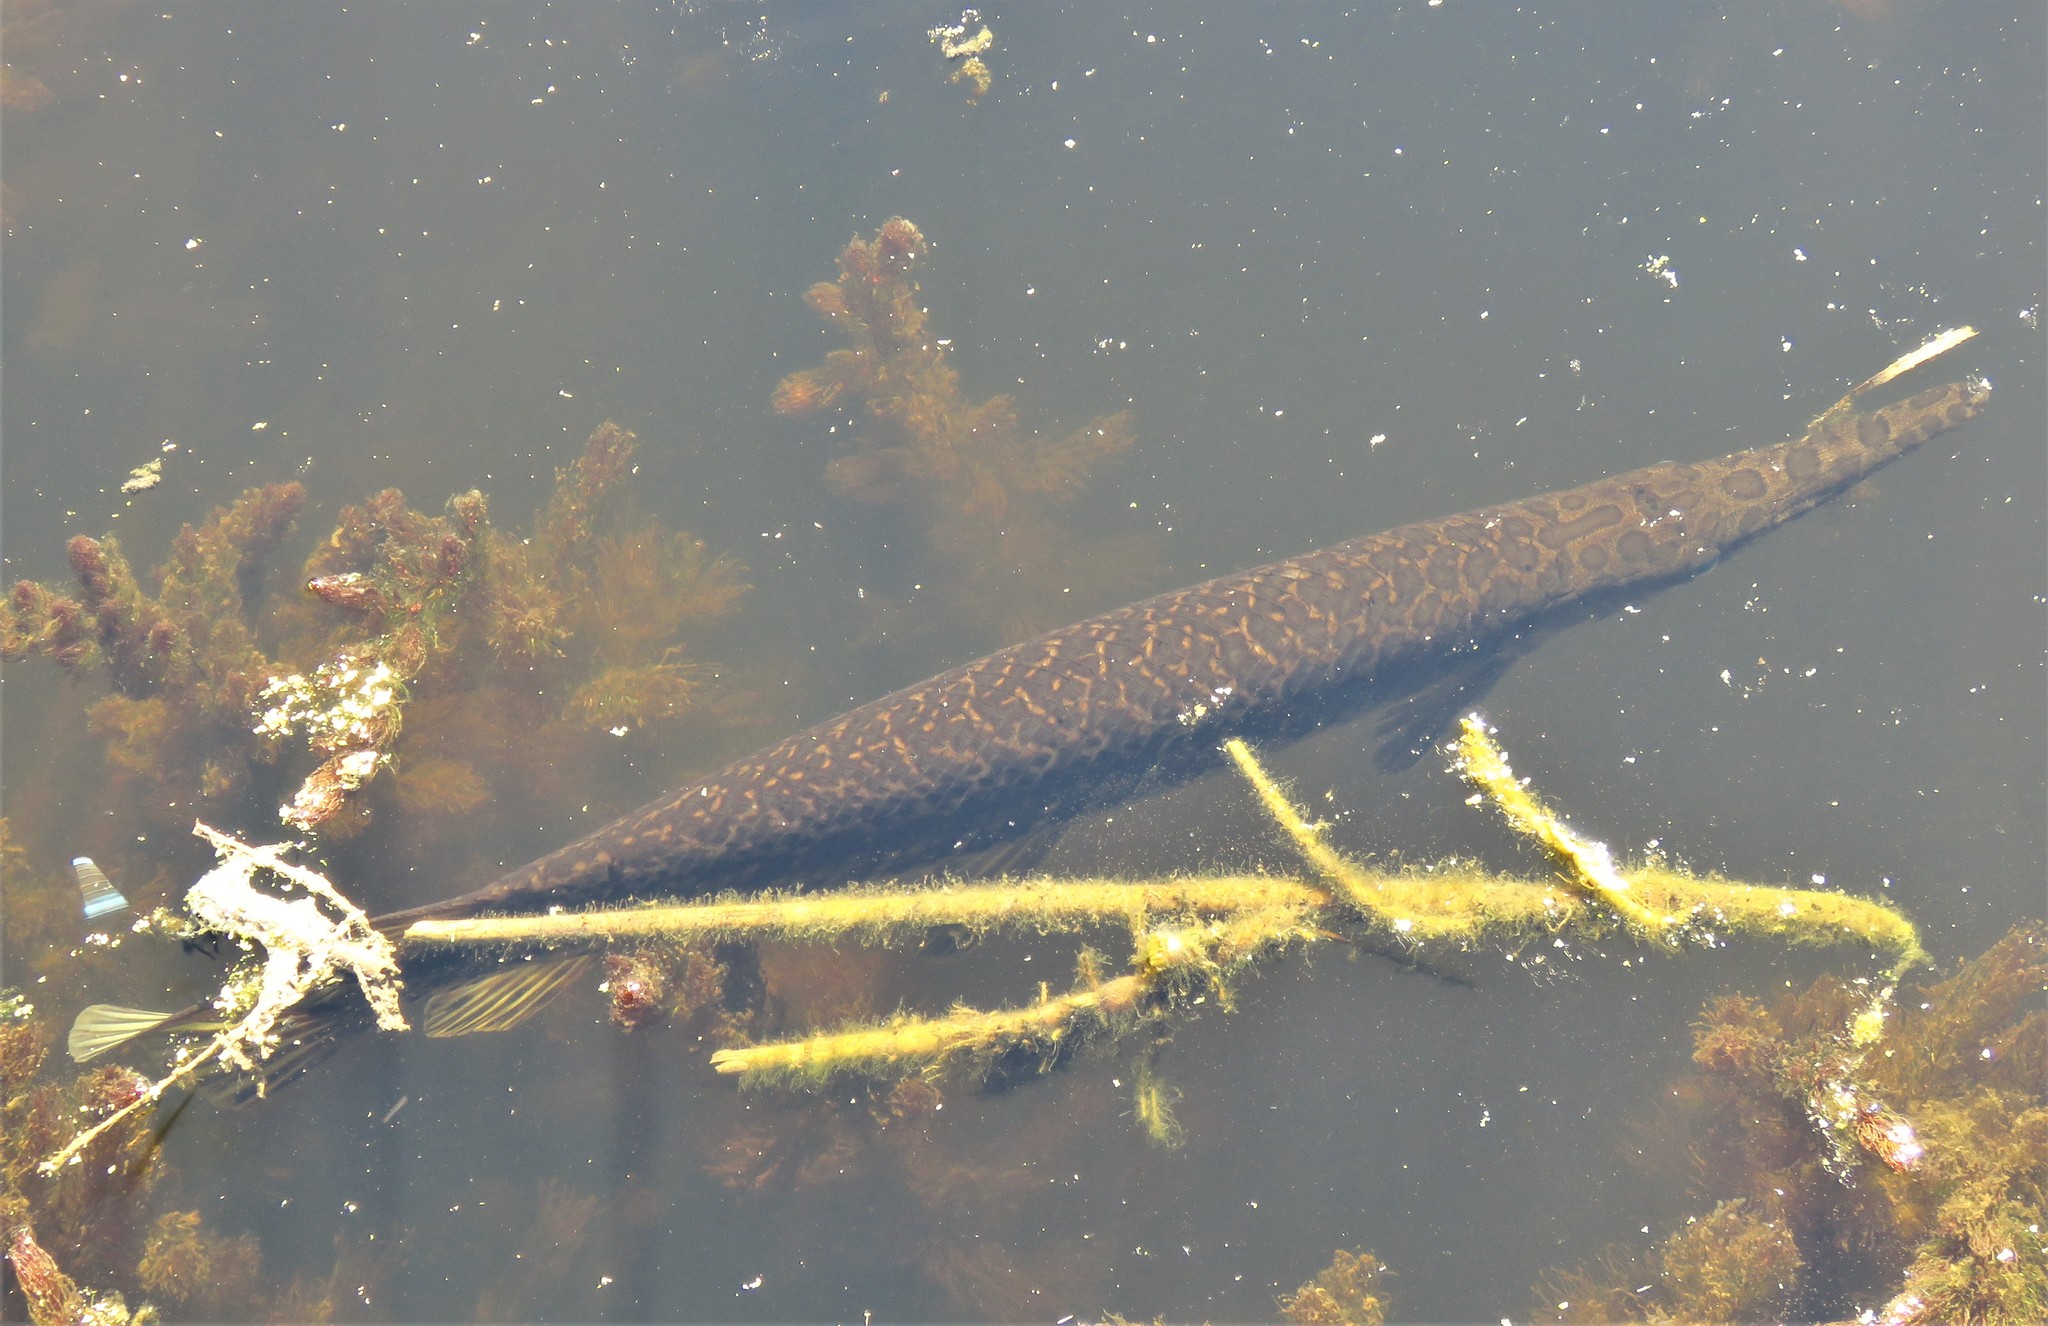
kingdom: Animalia
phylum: Chordata
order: Lepisosteiformes
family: Lepisosteidae
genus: Lepisosteus
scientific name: Lepisosteus oculatus
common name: Spotted gar
